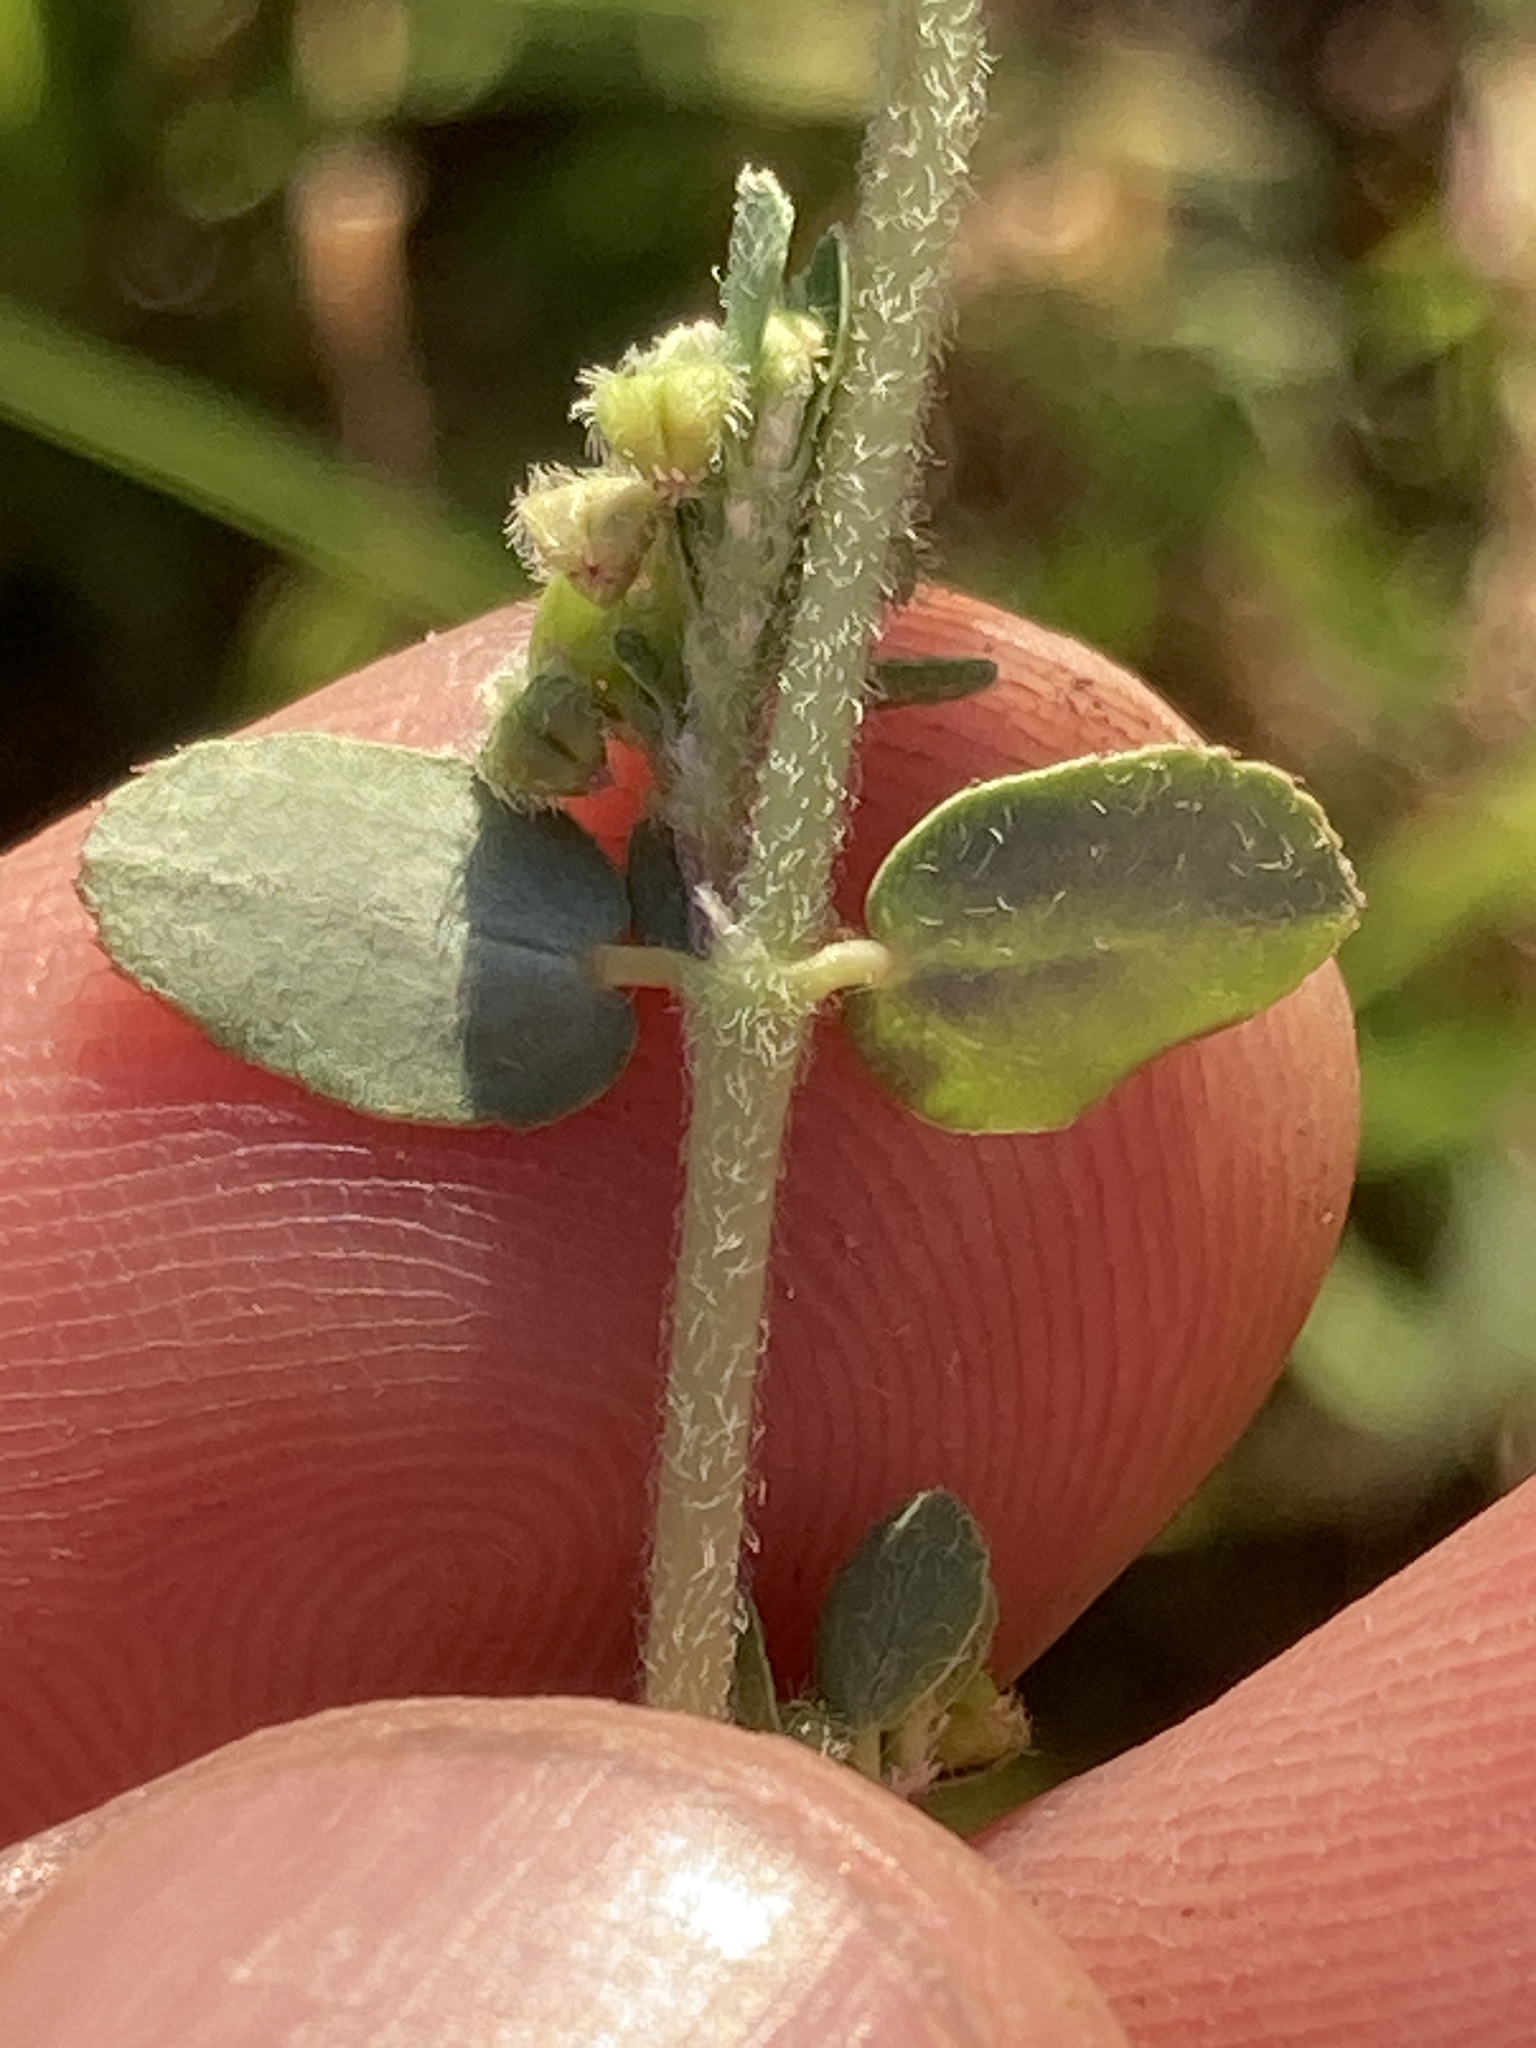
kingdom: Plantae
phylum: Tracheophyta
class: Magnoliopsida
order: Malpighiales
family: Euphorbiaceae
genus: Euphorbia
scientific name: Euphorbia prostrata
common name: Prostrate sandmat
